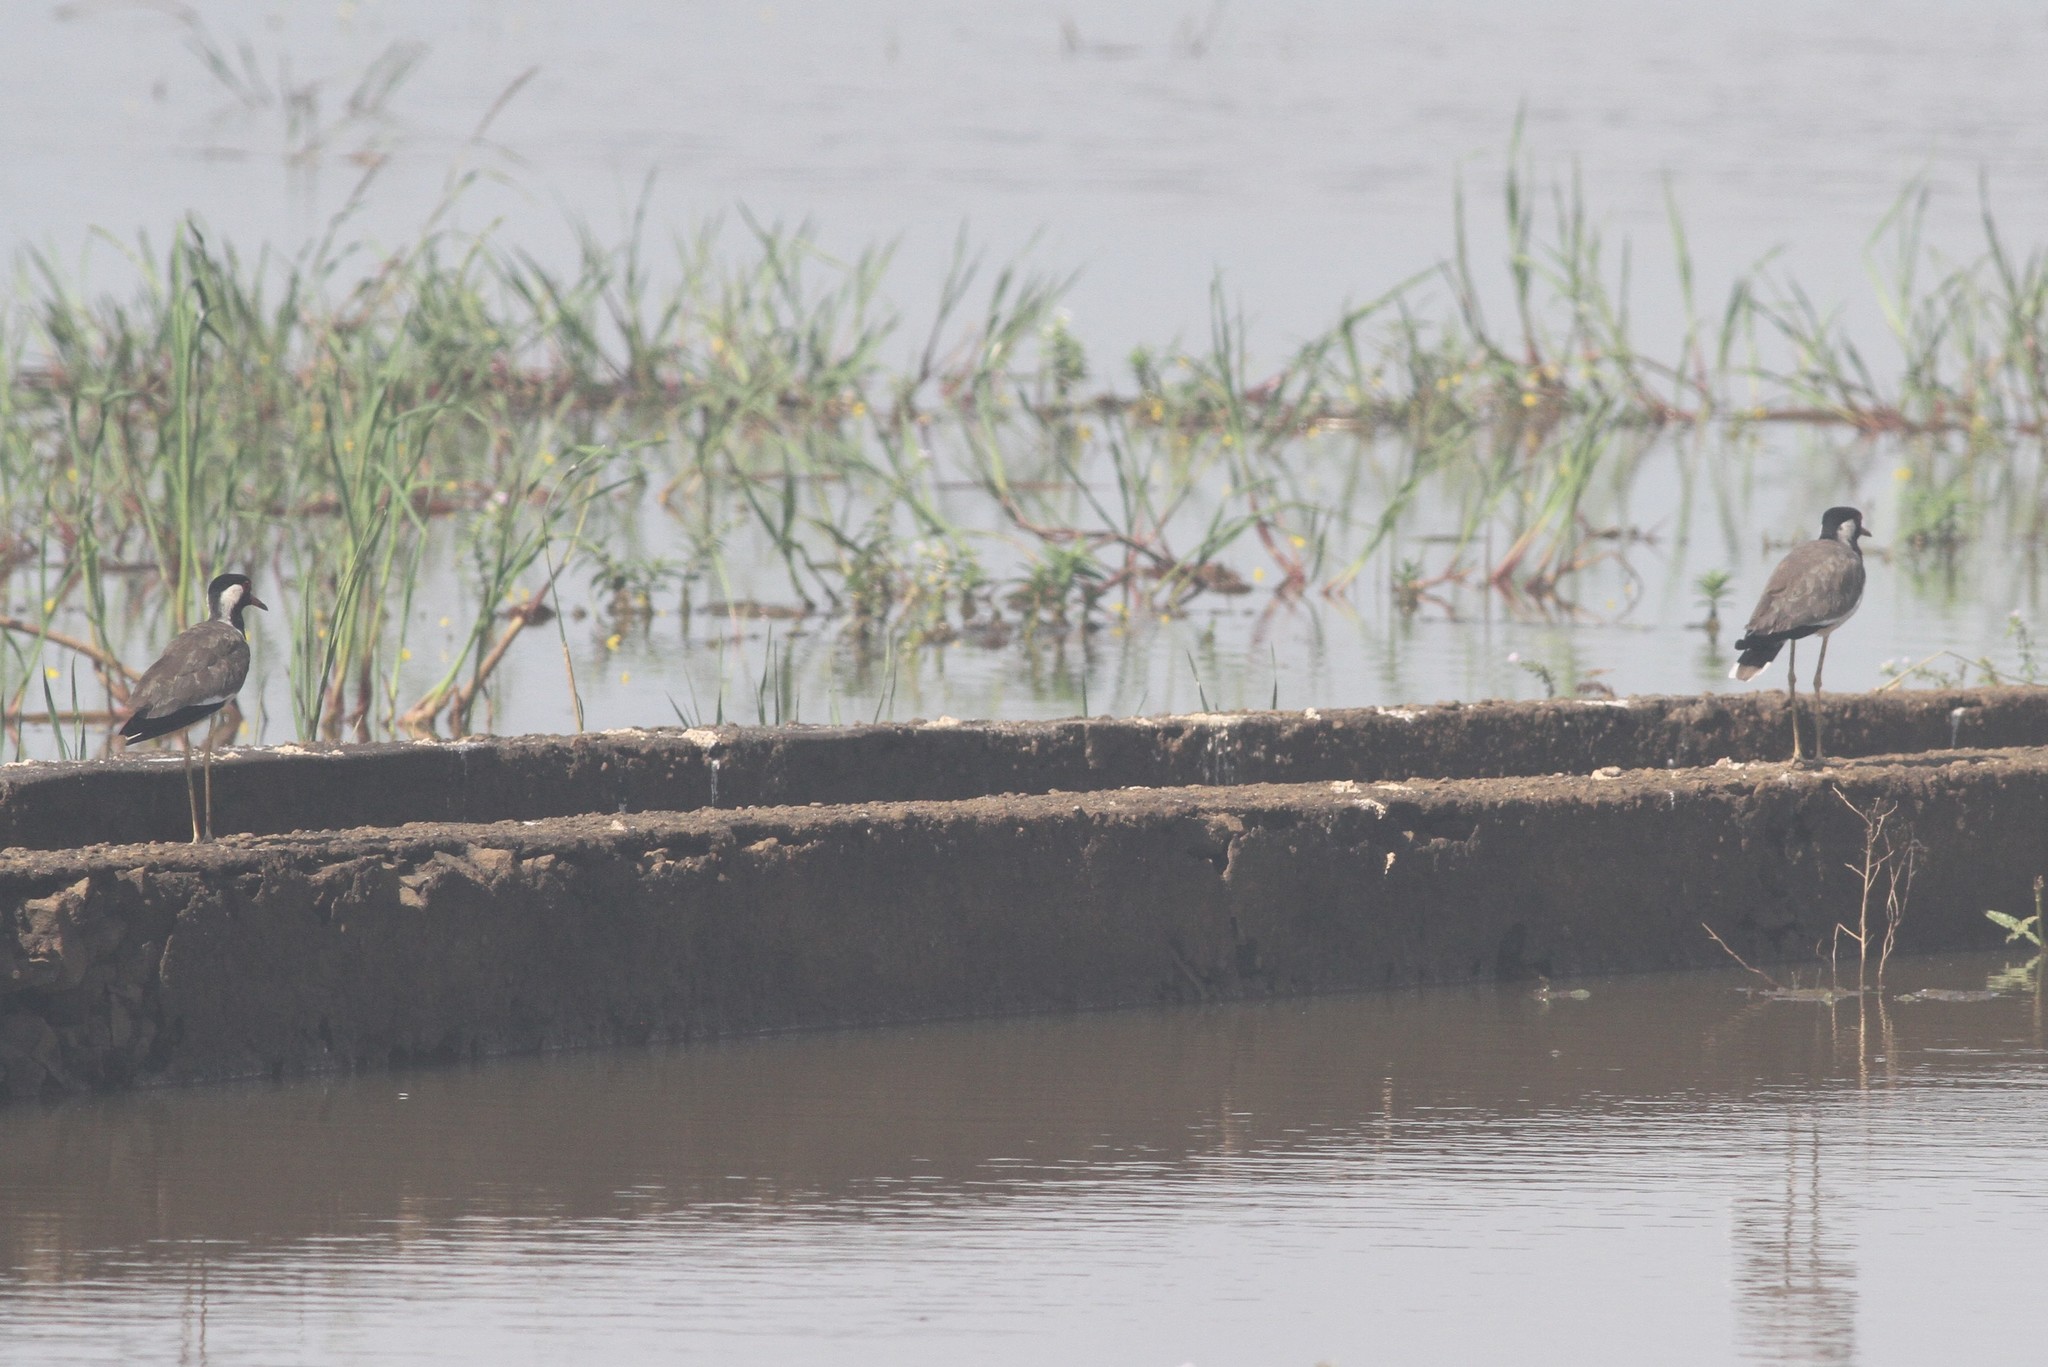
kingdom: Animalia
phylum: Chordata
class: Aves
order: Charadriiformes
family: Charadriidae
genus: Vanellus
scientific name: Vanellus indicus
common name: Red-wattled lapwing
